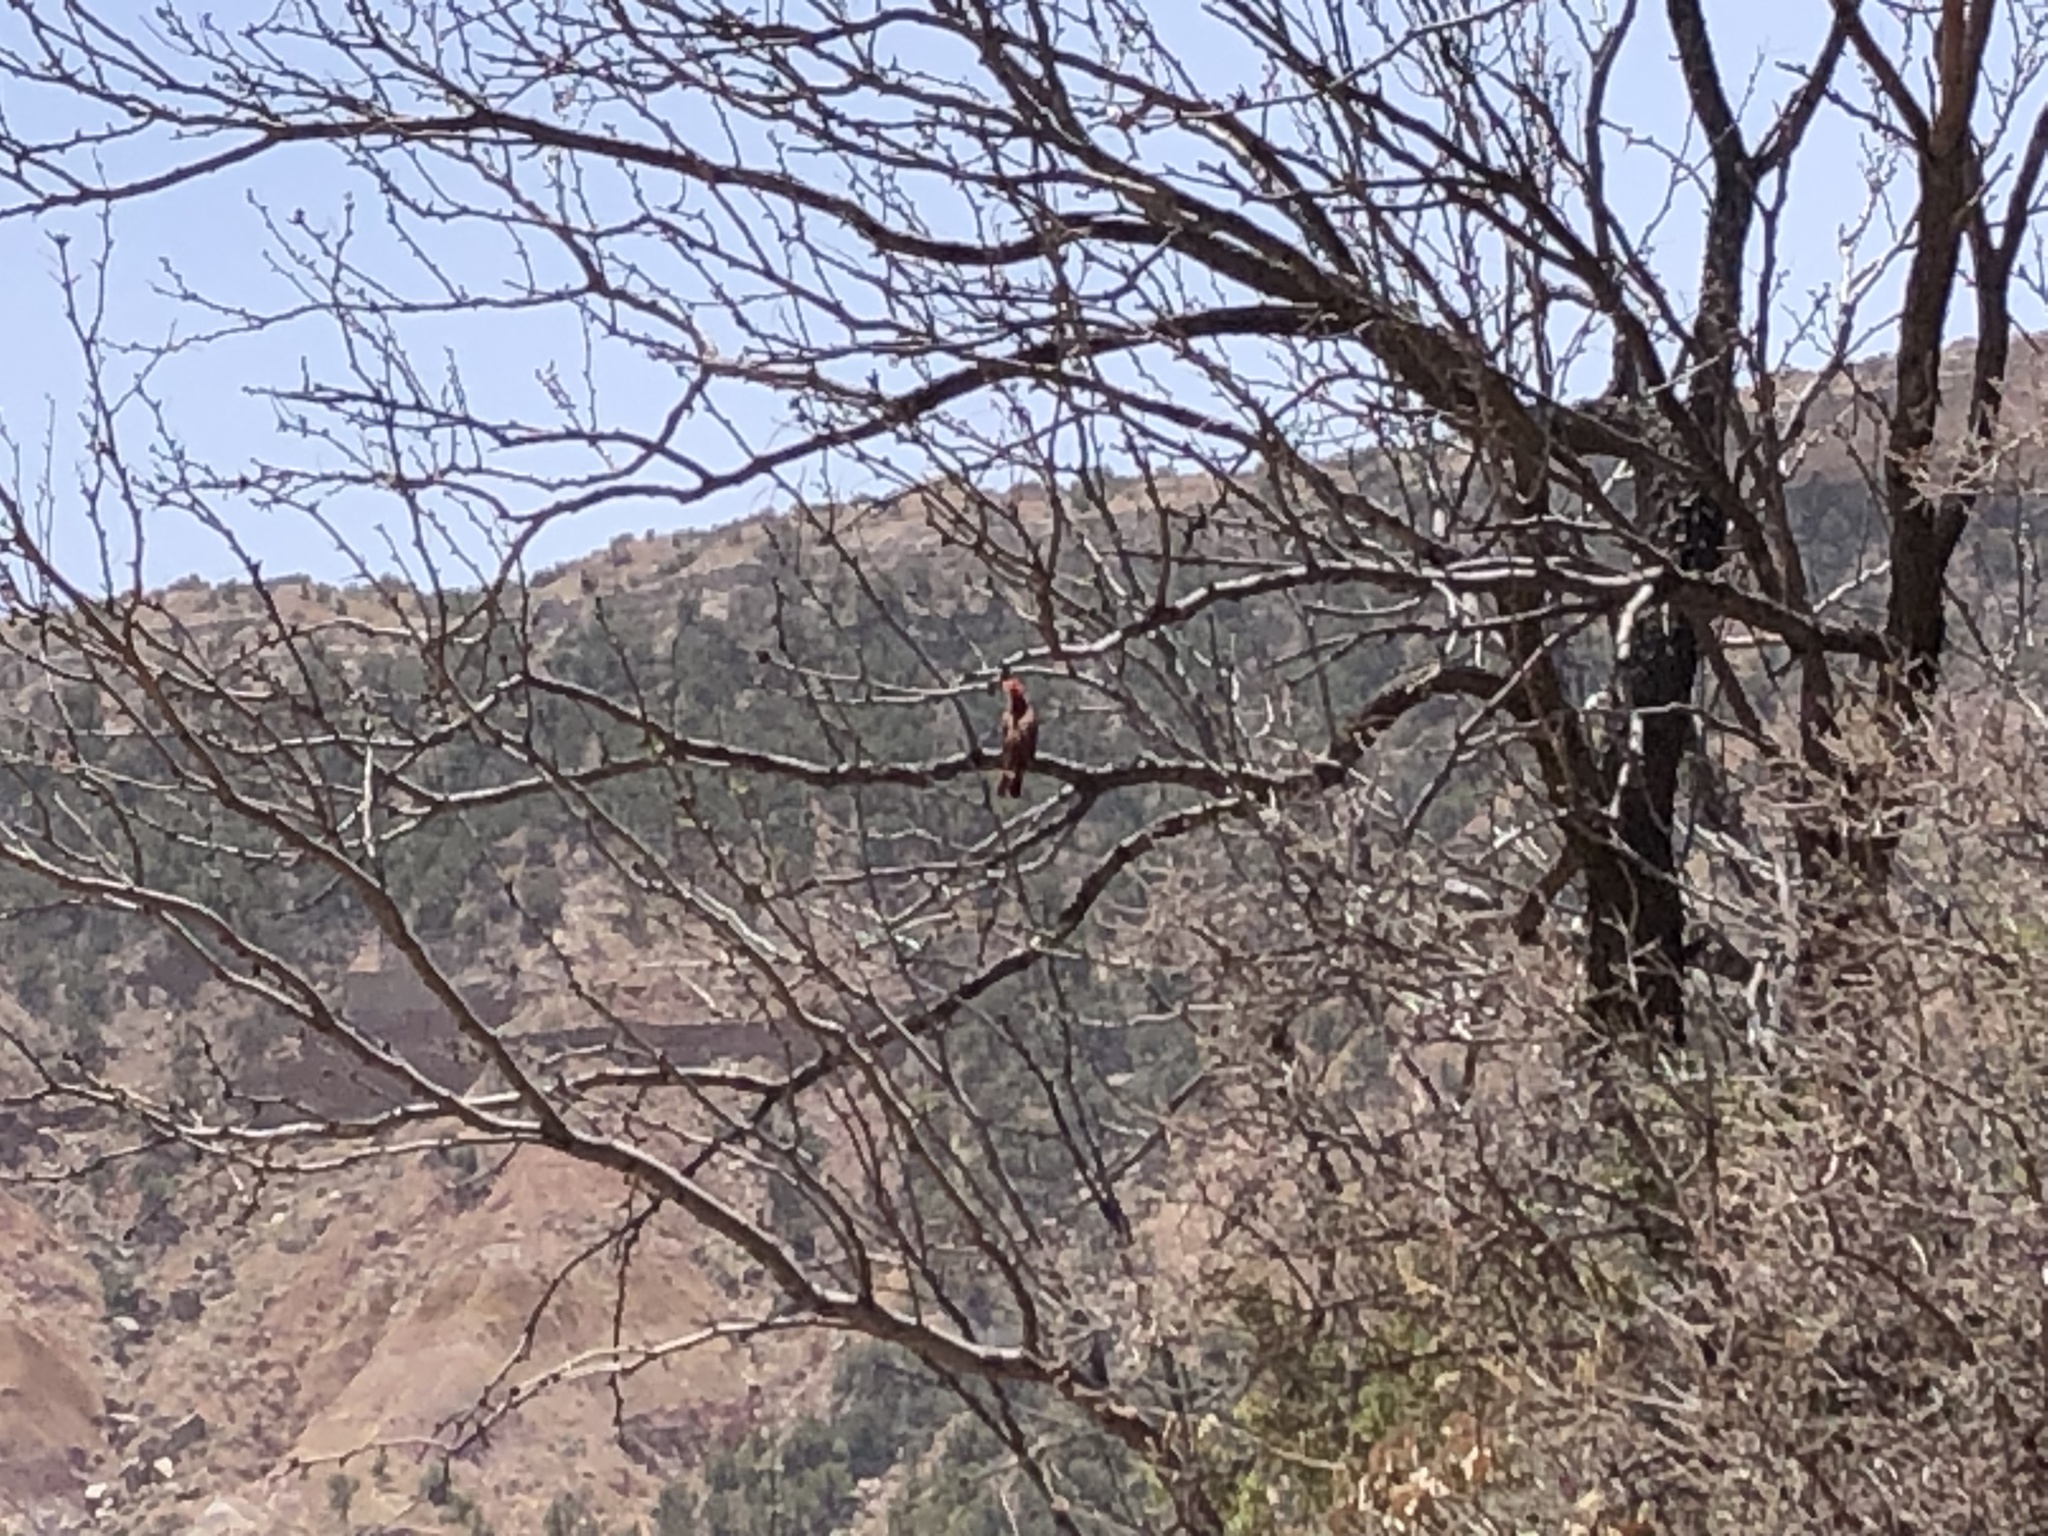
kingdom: Animalia
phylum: Chordata
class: Aves
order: Passeriformes
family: Cardinalidae
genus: Cardinalis
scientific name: Cardinalis cardinalis
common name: Northern cardinal
